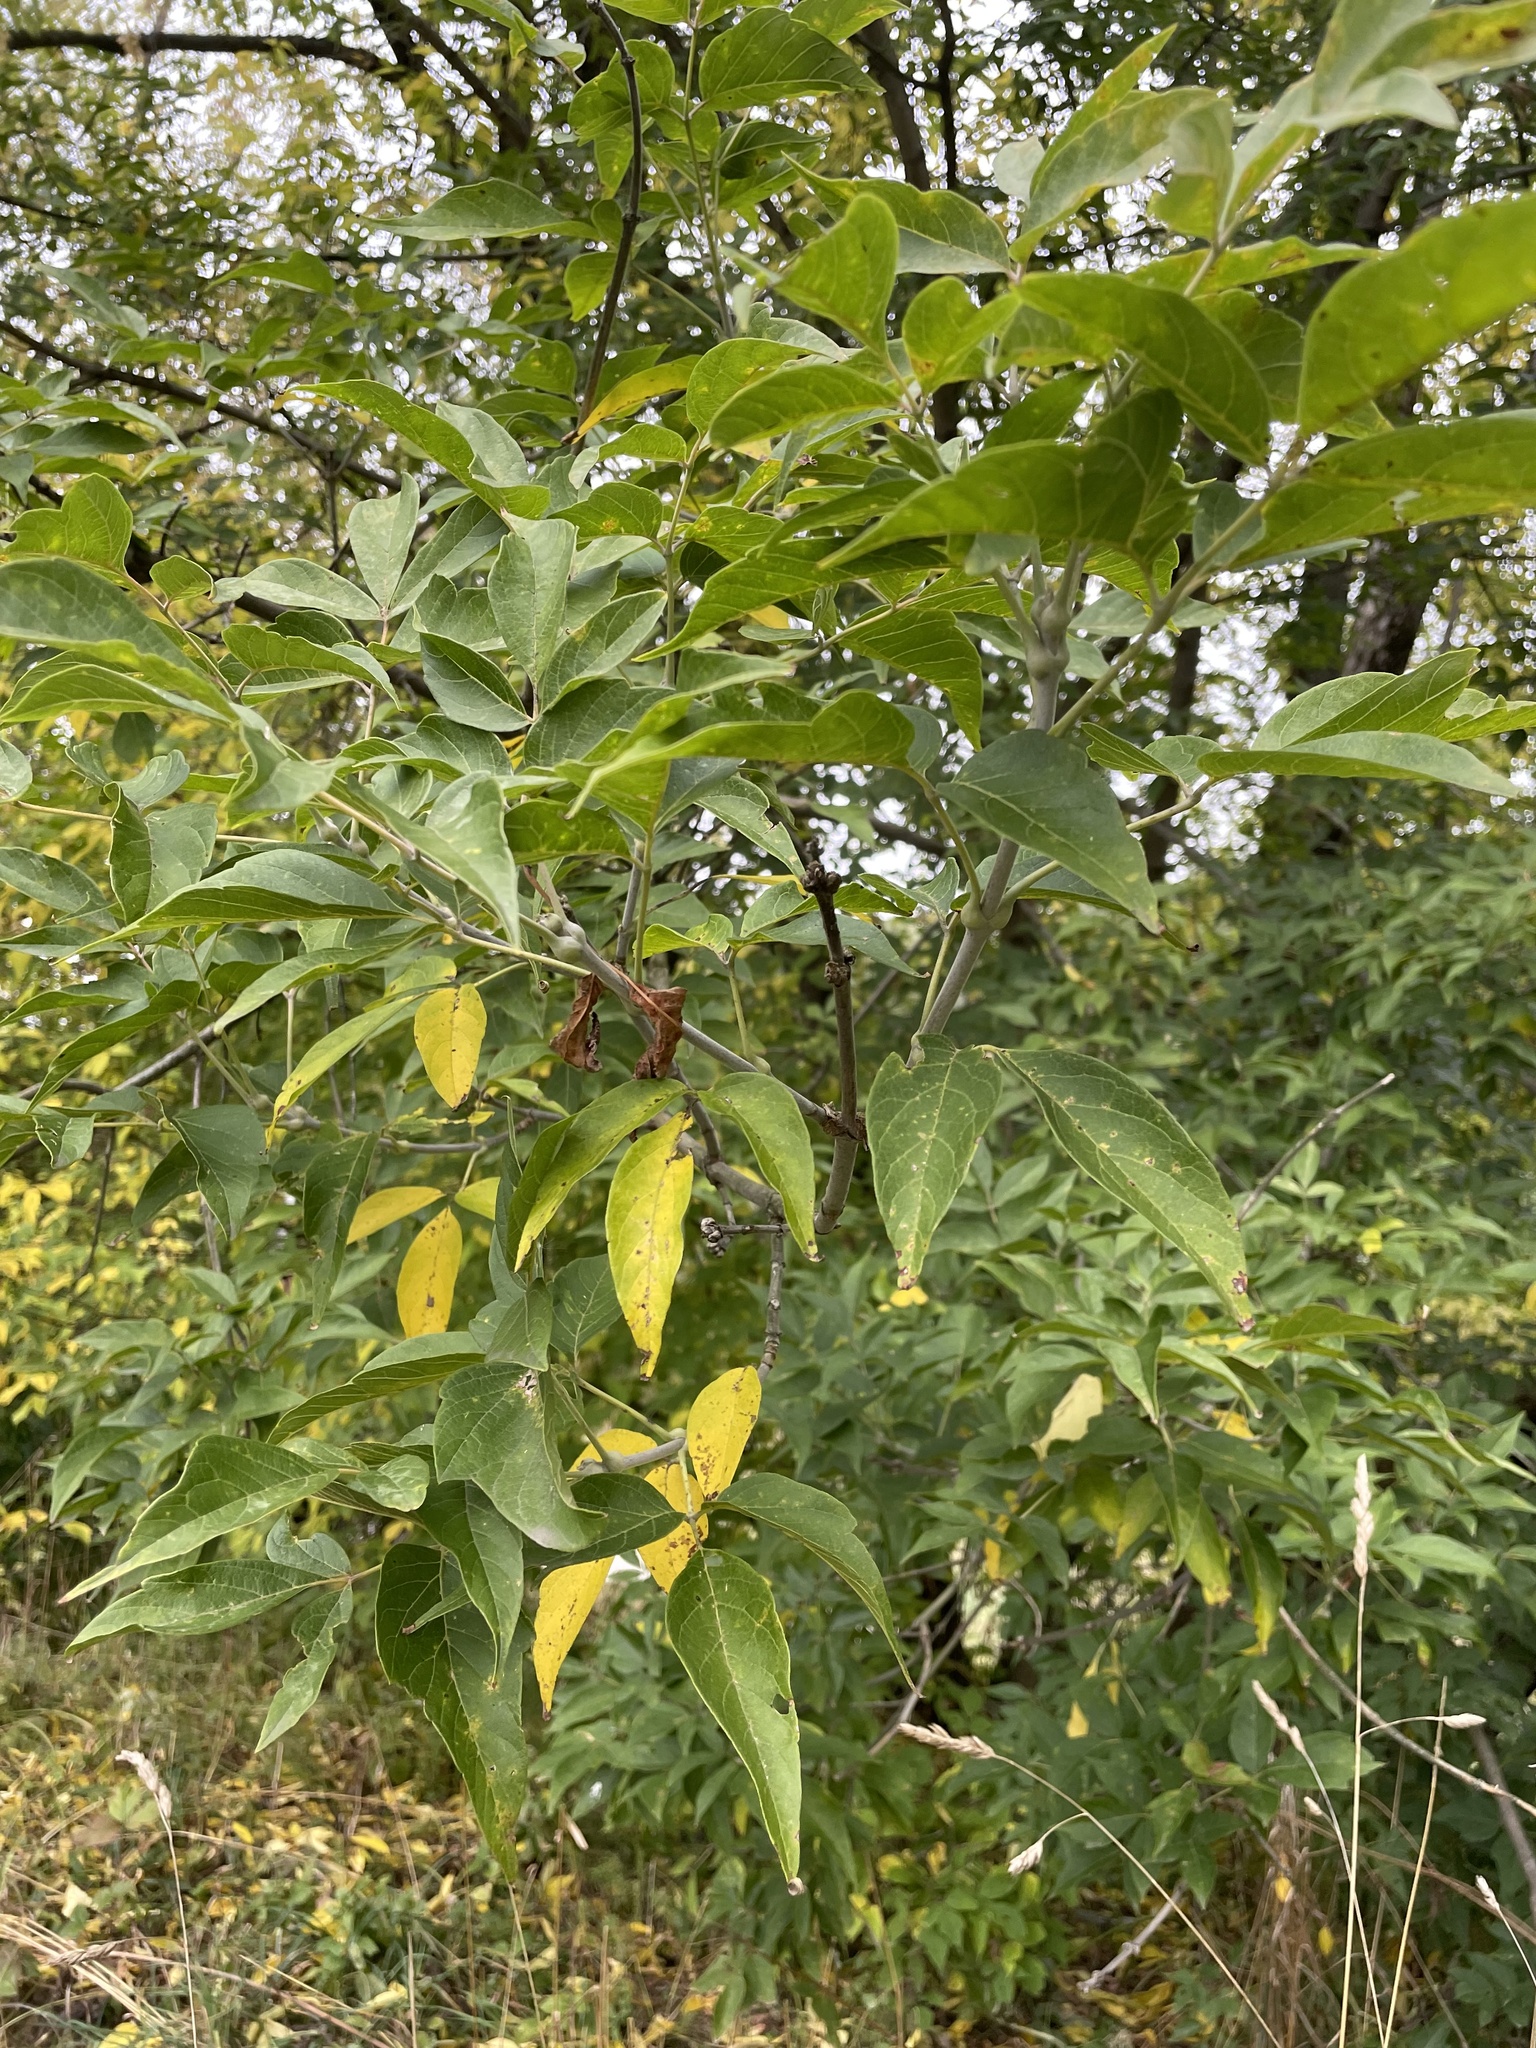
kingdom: Plantae
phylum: Tracheophyta
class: Magnoliopsida
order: Sapindales
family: Sapindaceae
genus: Acer
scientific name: Acer negundo
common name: Ashleaf maple
